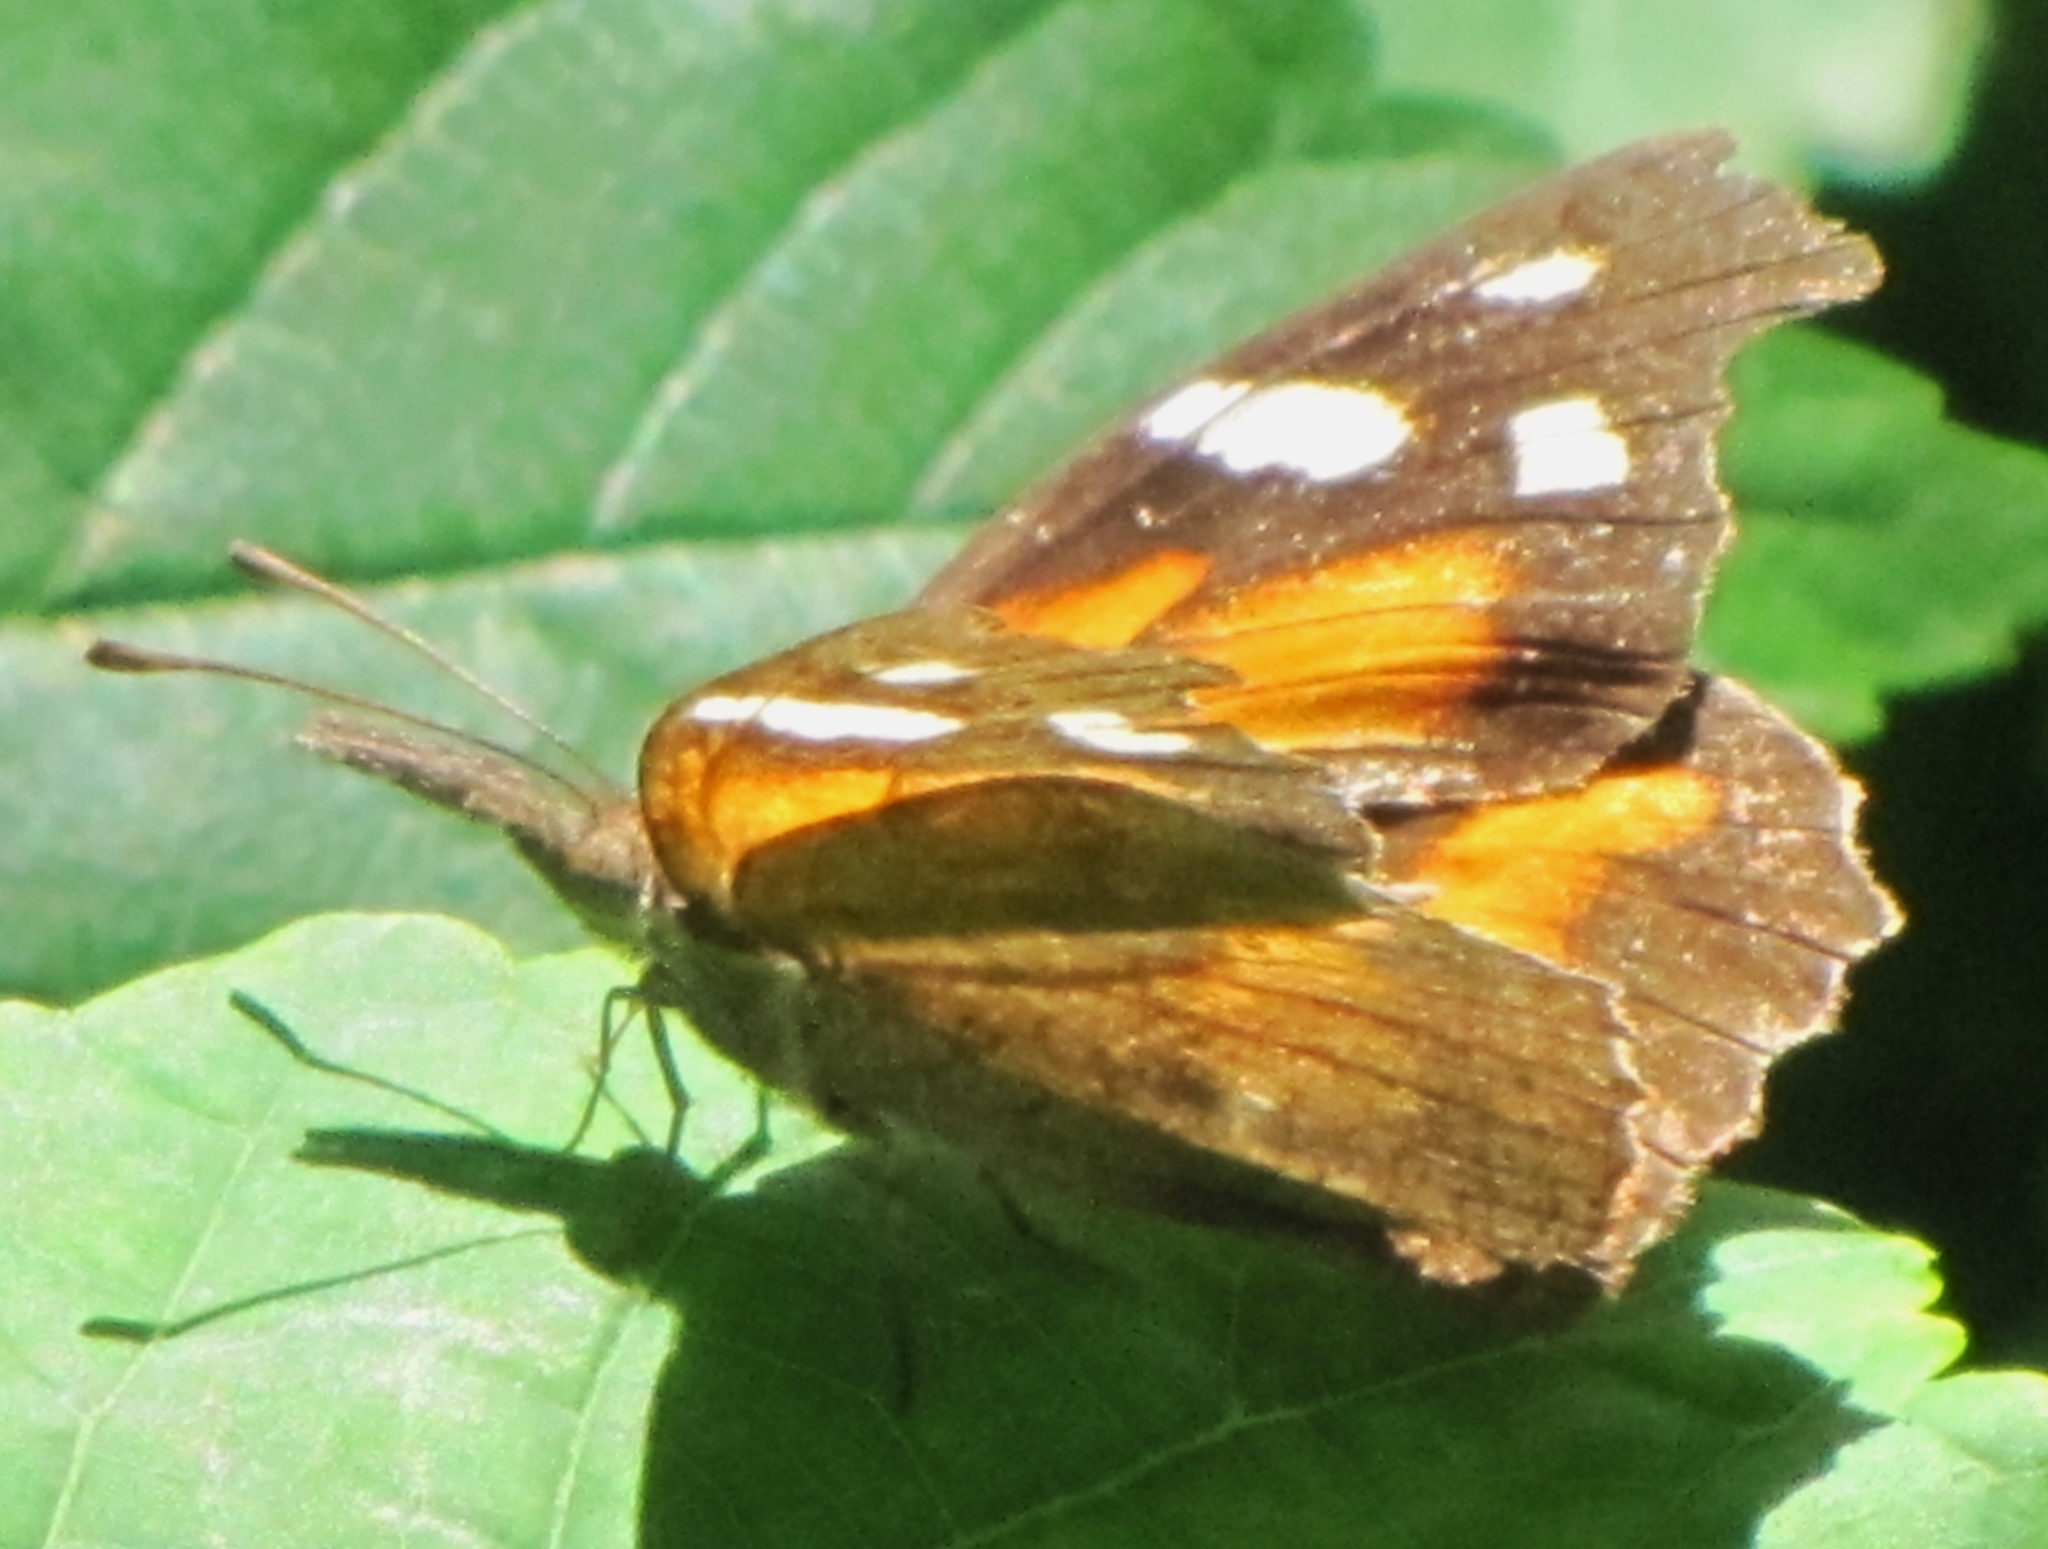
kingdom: Animalia
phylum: Arthropoda
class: Insecta
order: Lepidoptera
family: Nymphalidae
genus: Libytheana
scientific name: Libytheana carinenta
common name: American snout
